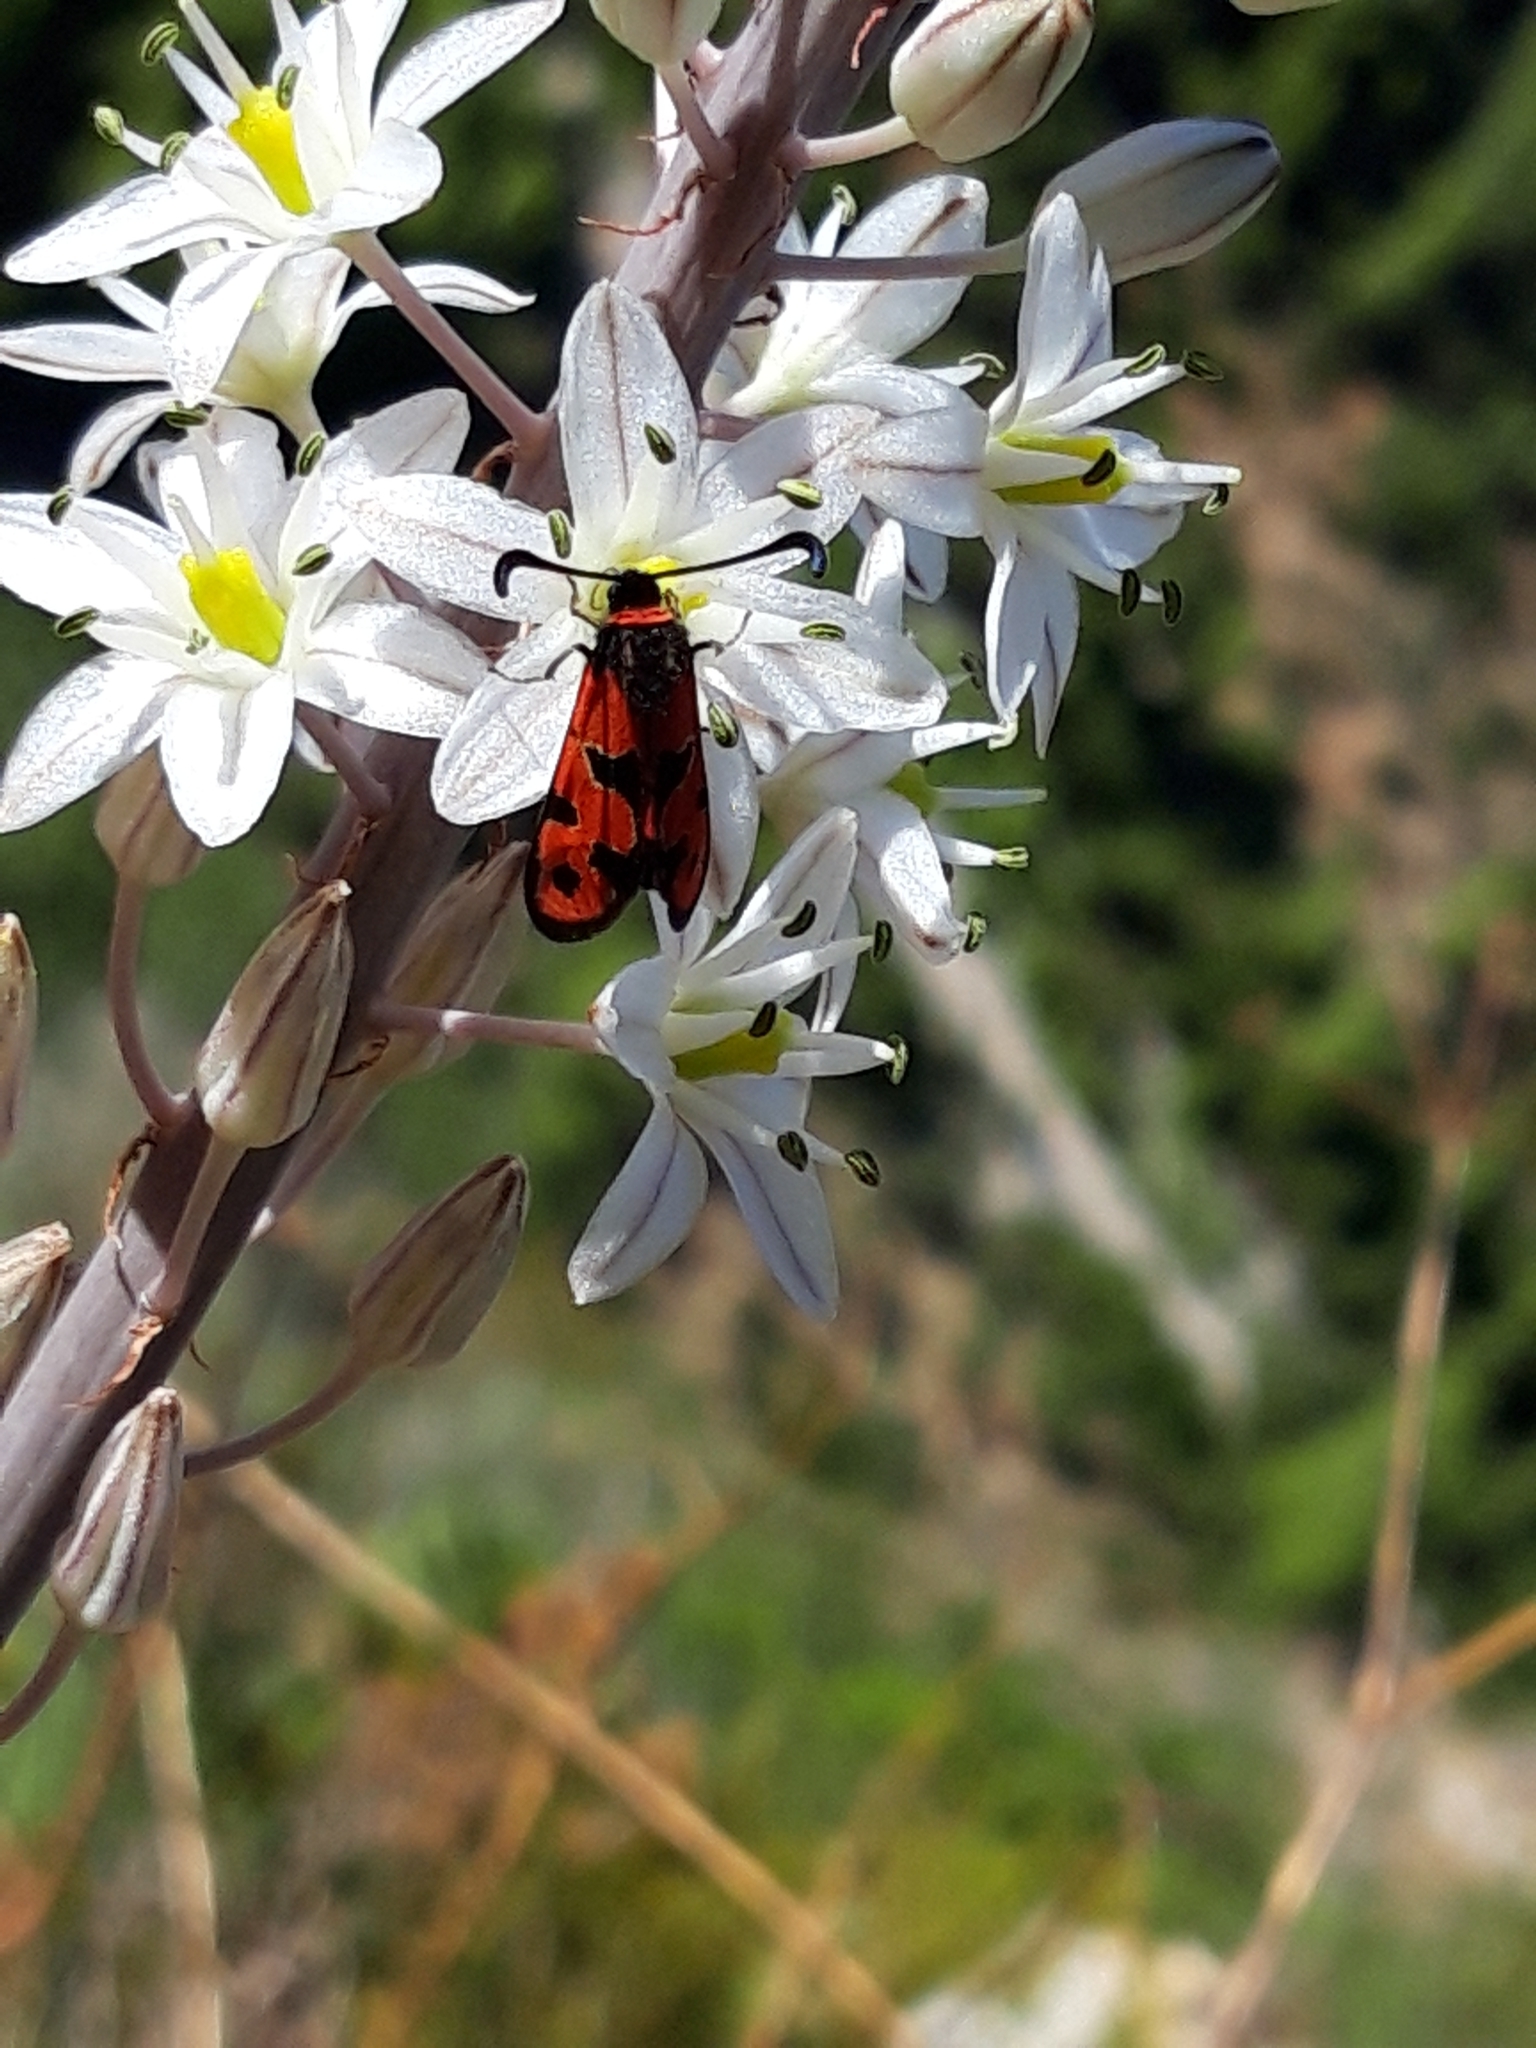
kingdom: Animalia
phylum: Arthropoda
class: Insecta
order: Lepidoptera
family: Zygaenidae
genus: Zygaena
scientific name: Zygaena fausta
